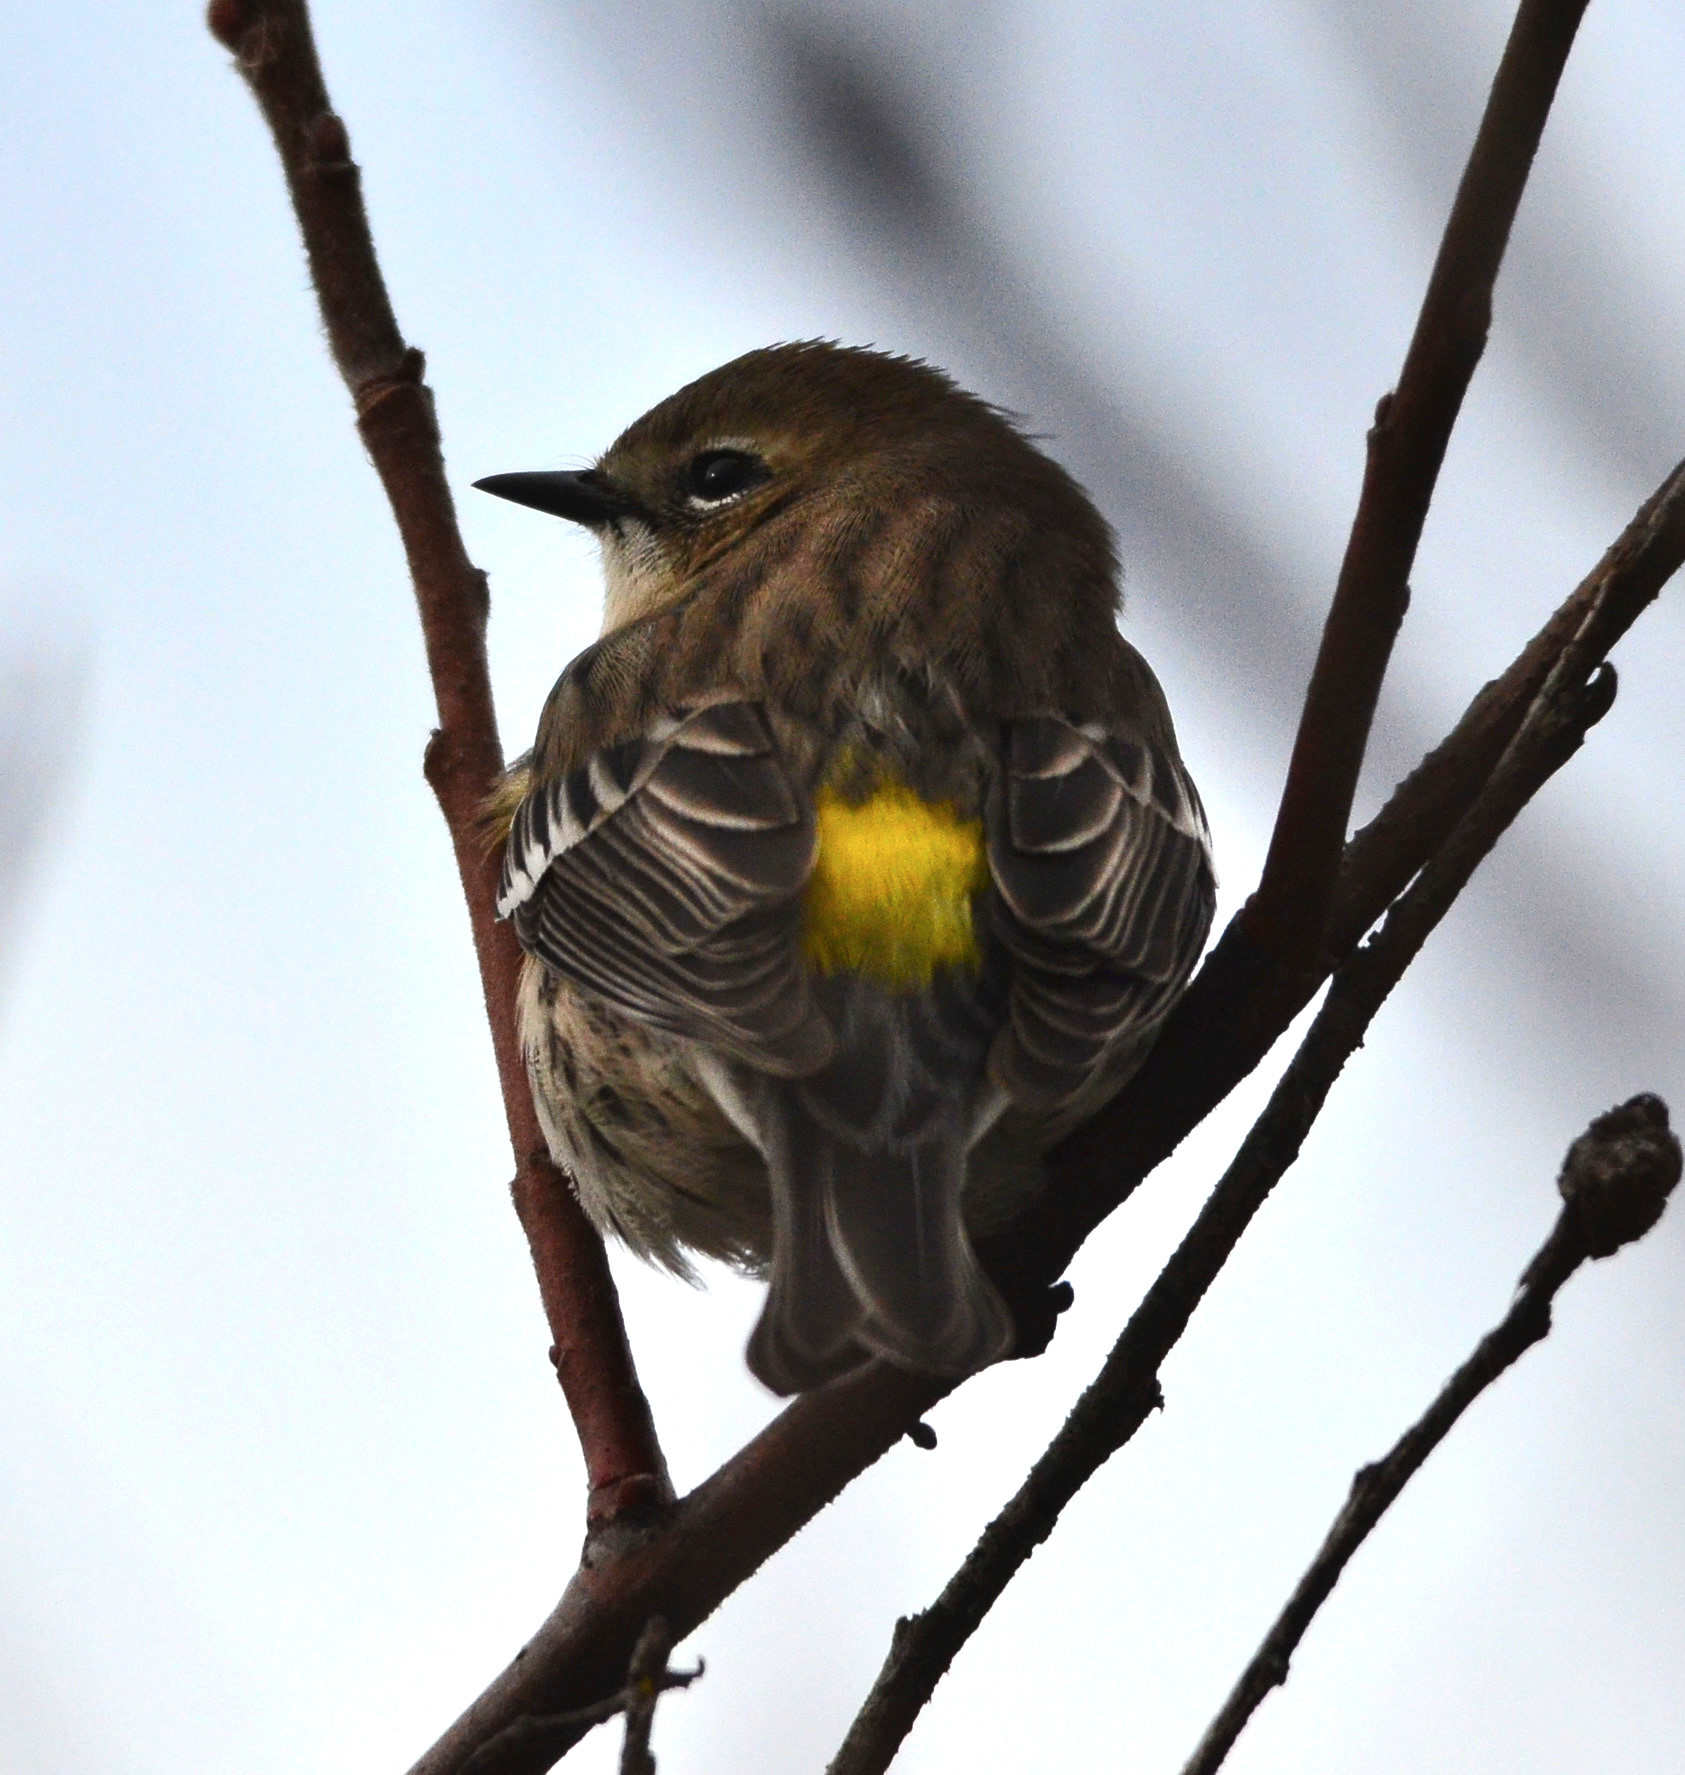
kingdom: Animalia
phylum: Chordata
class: Aves
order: Passeriformes
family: Parulidae
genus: Setophaga
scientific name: Setophaga coronata
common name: Myrtle warbler
